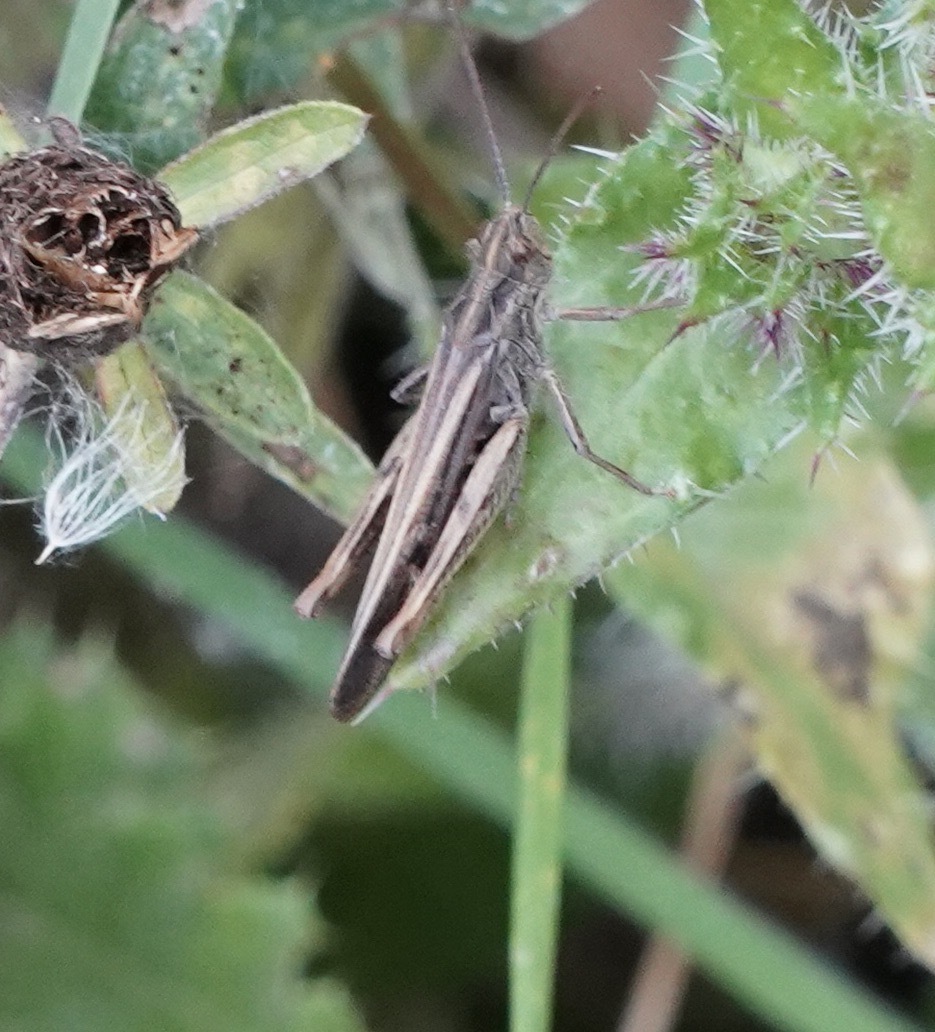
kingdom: Animalia
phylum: Arthropoda
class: Insecta
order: Orthoptera
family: Acrididae
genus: Chorthippus
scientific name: Chorthippus brunneus
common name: Field grasshopper
